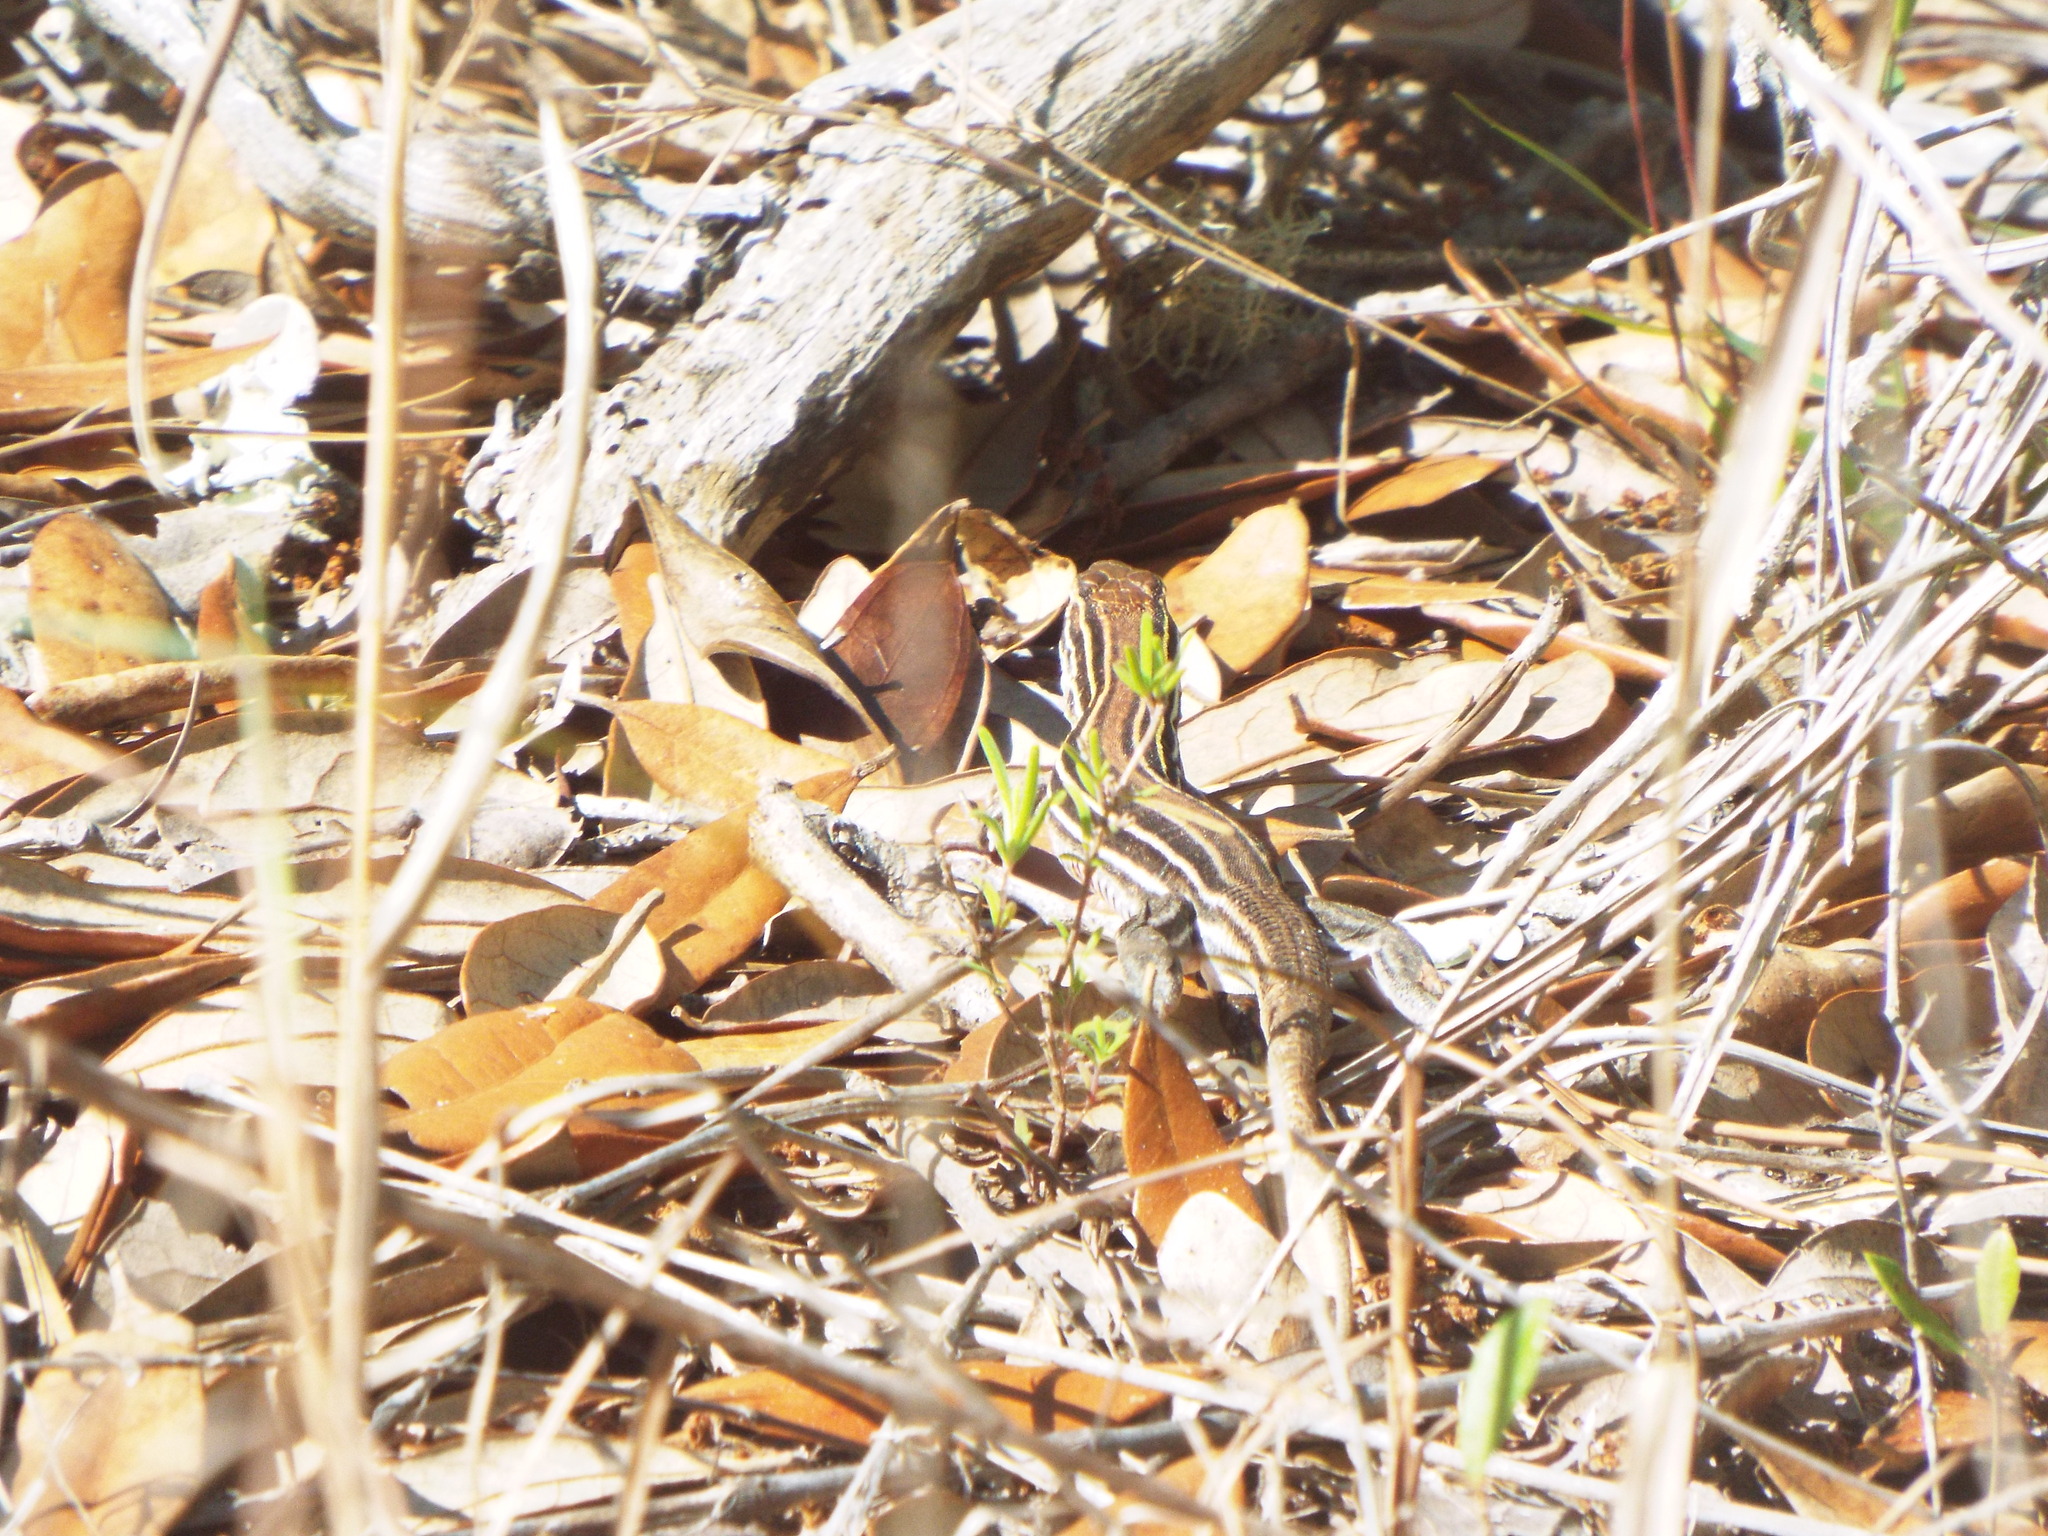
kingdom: Animalia
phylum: Chordata
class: Squamata
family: Teiidae
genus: Aspidoscelis
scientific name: Aspidoscelis sexlineatus
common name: Six-lined racerunner
